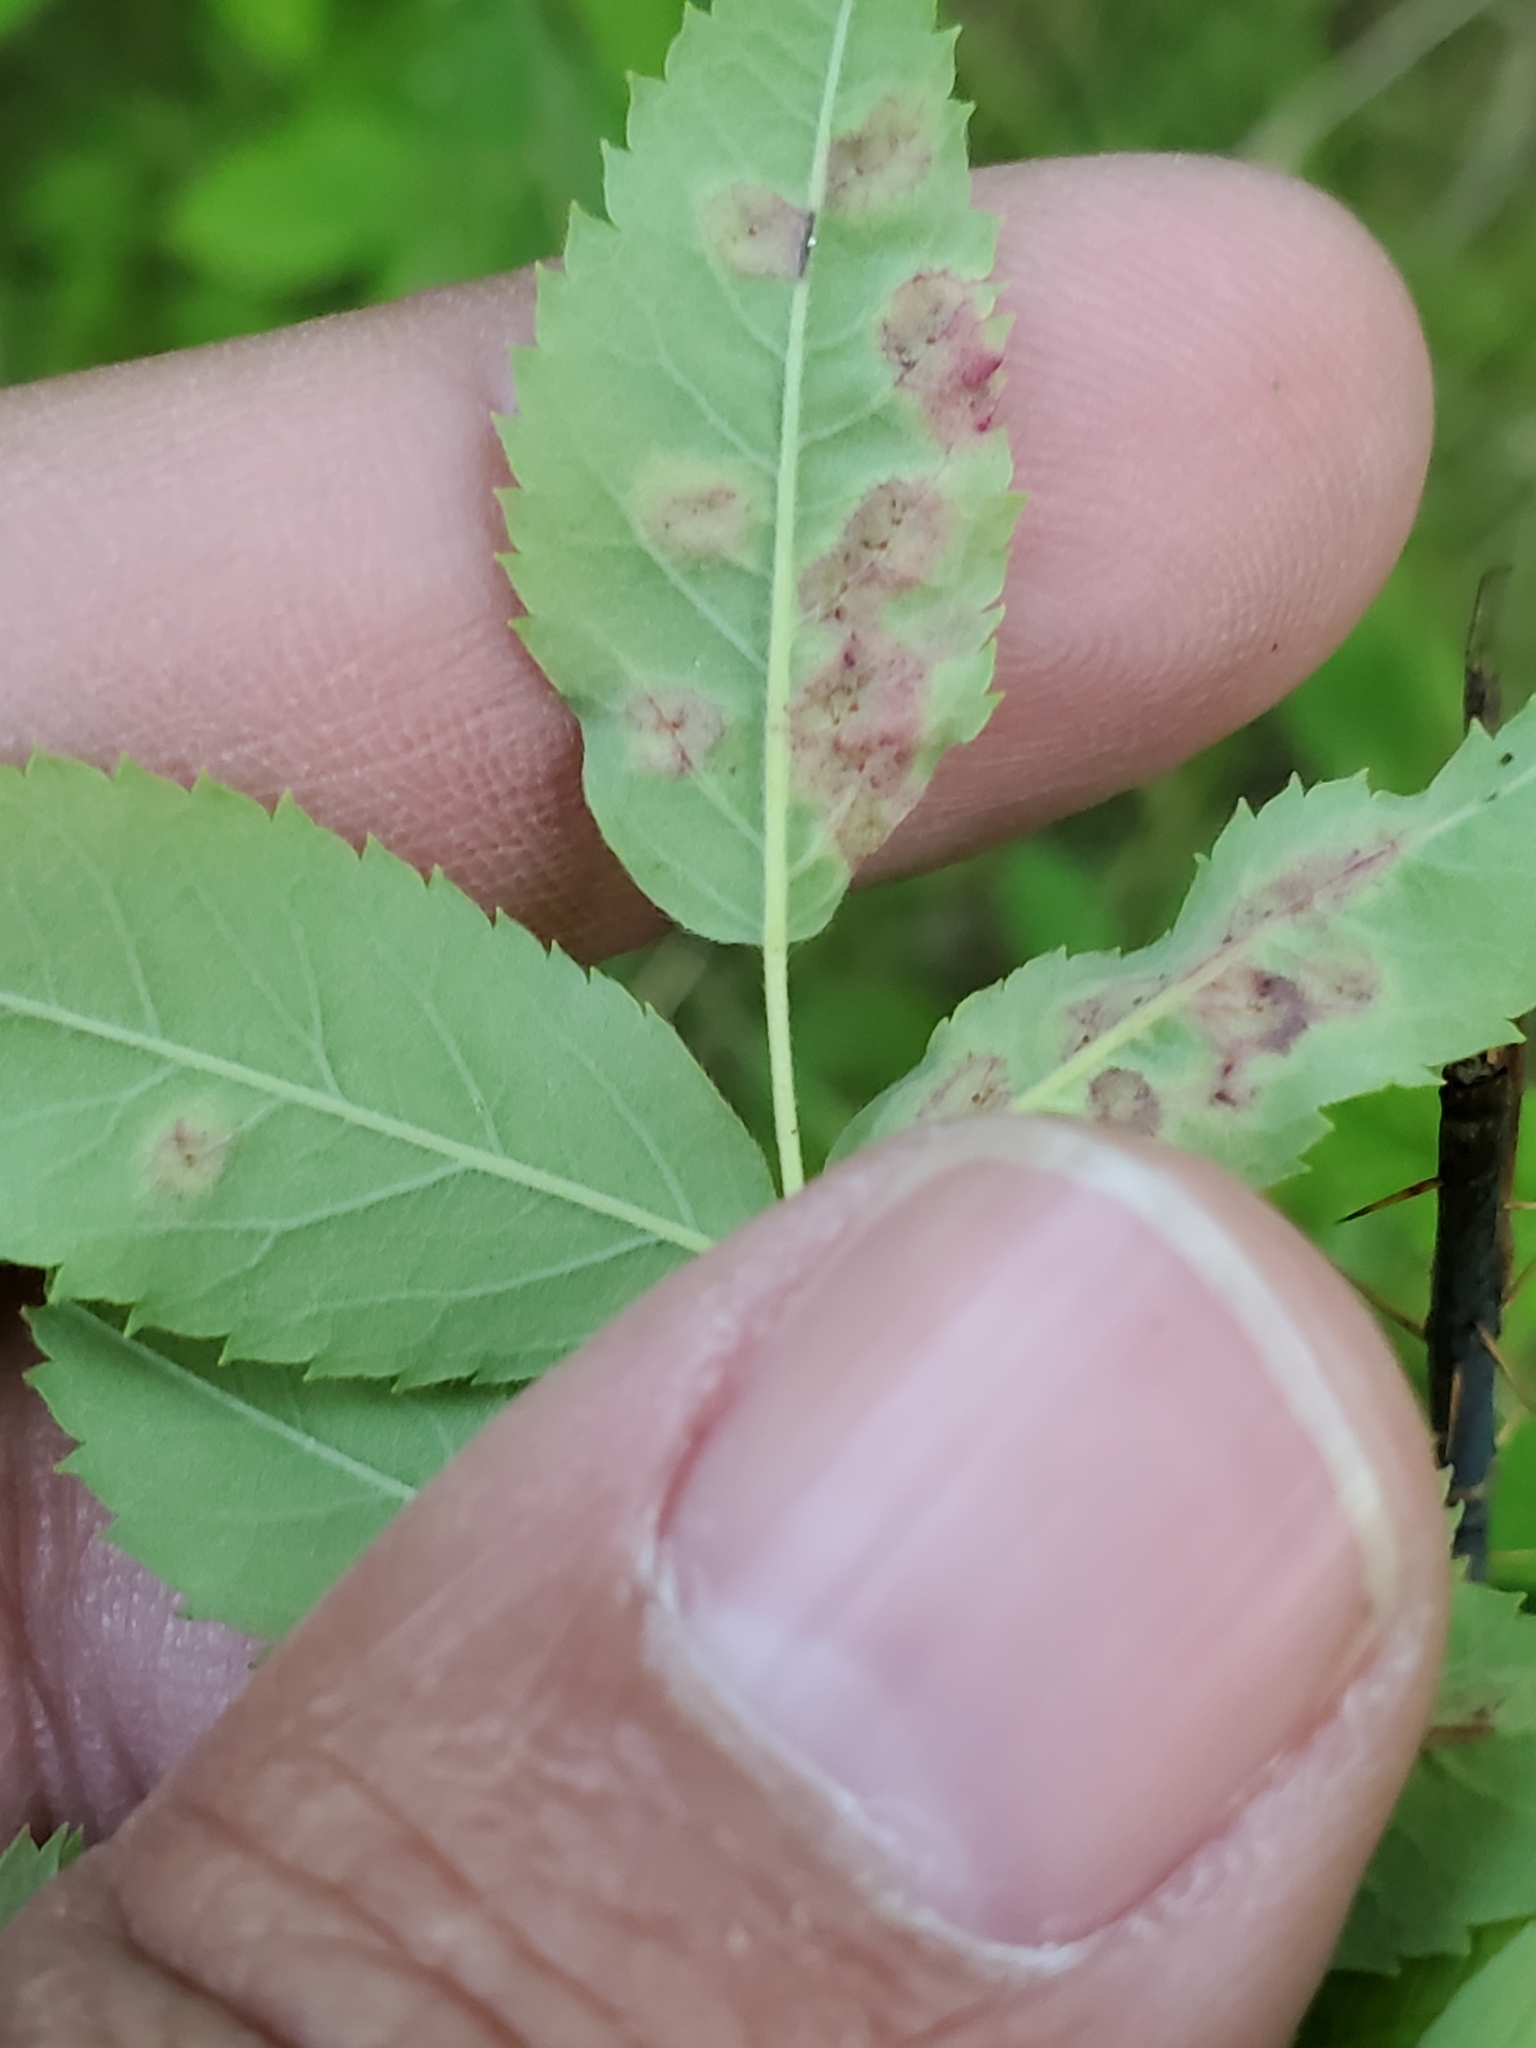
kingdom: Animalia
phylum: Arthropoda
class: Insecta
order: Hymenoptera
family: Cynipidae
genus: Diplolepis
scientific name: Diplolepis rosaefolii
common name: Blister-gall wasp
